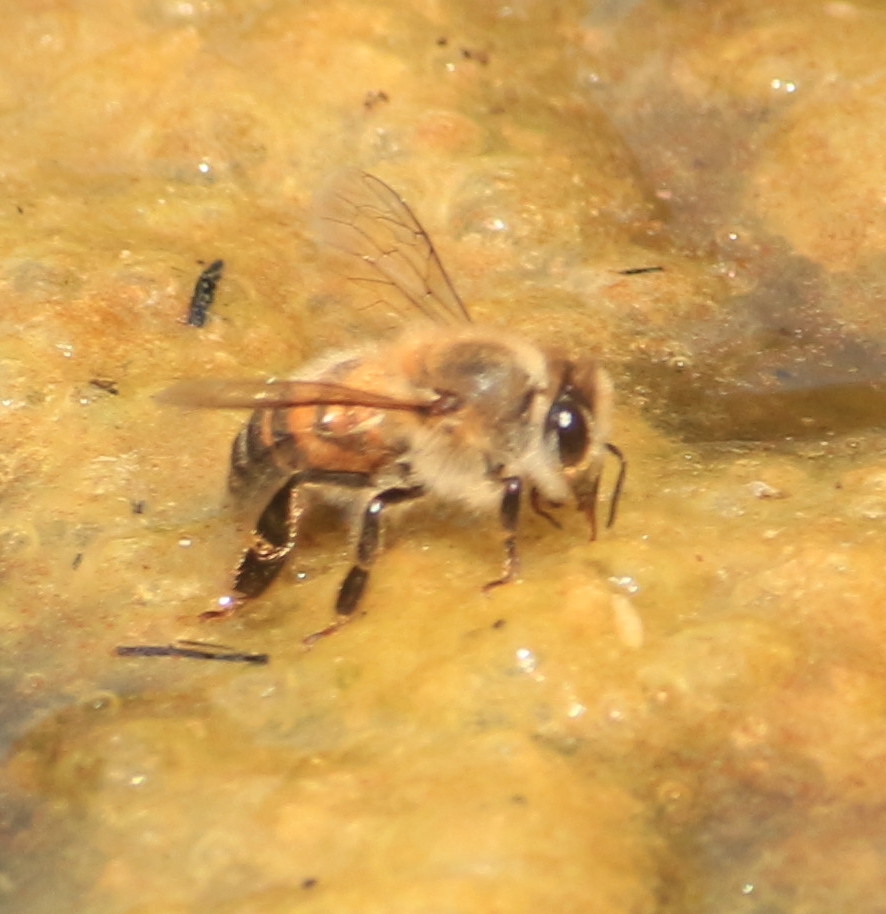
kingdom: Animalia
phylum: Arthropoda
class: Insecta
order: Hymenoptera
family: Apidae
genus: Apis
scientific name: Apis mellifera
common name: Honey bee
